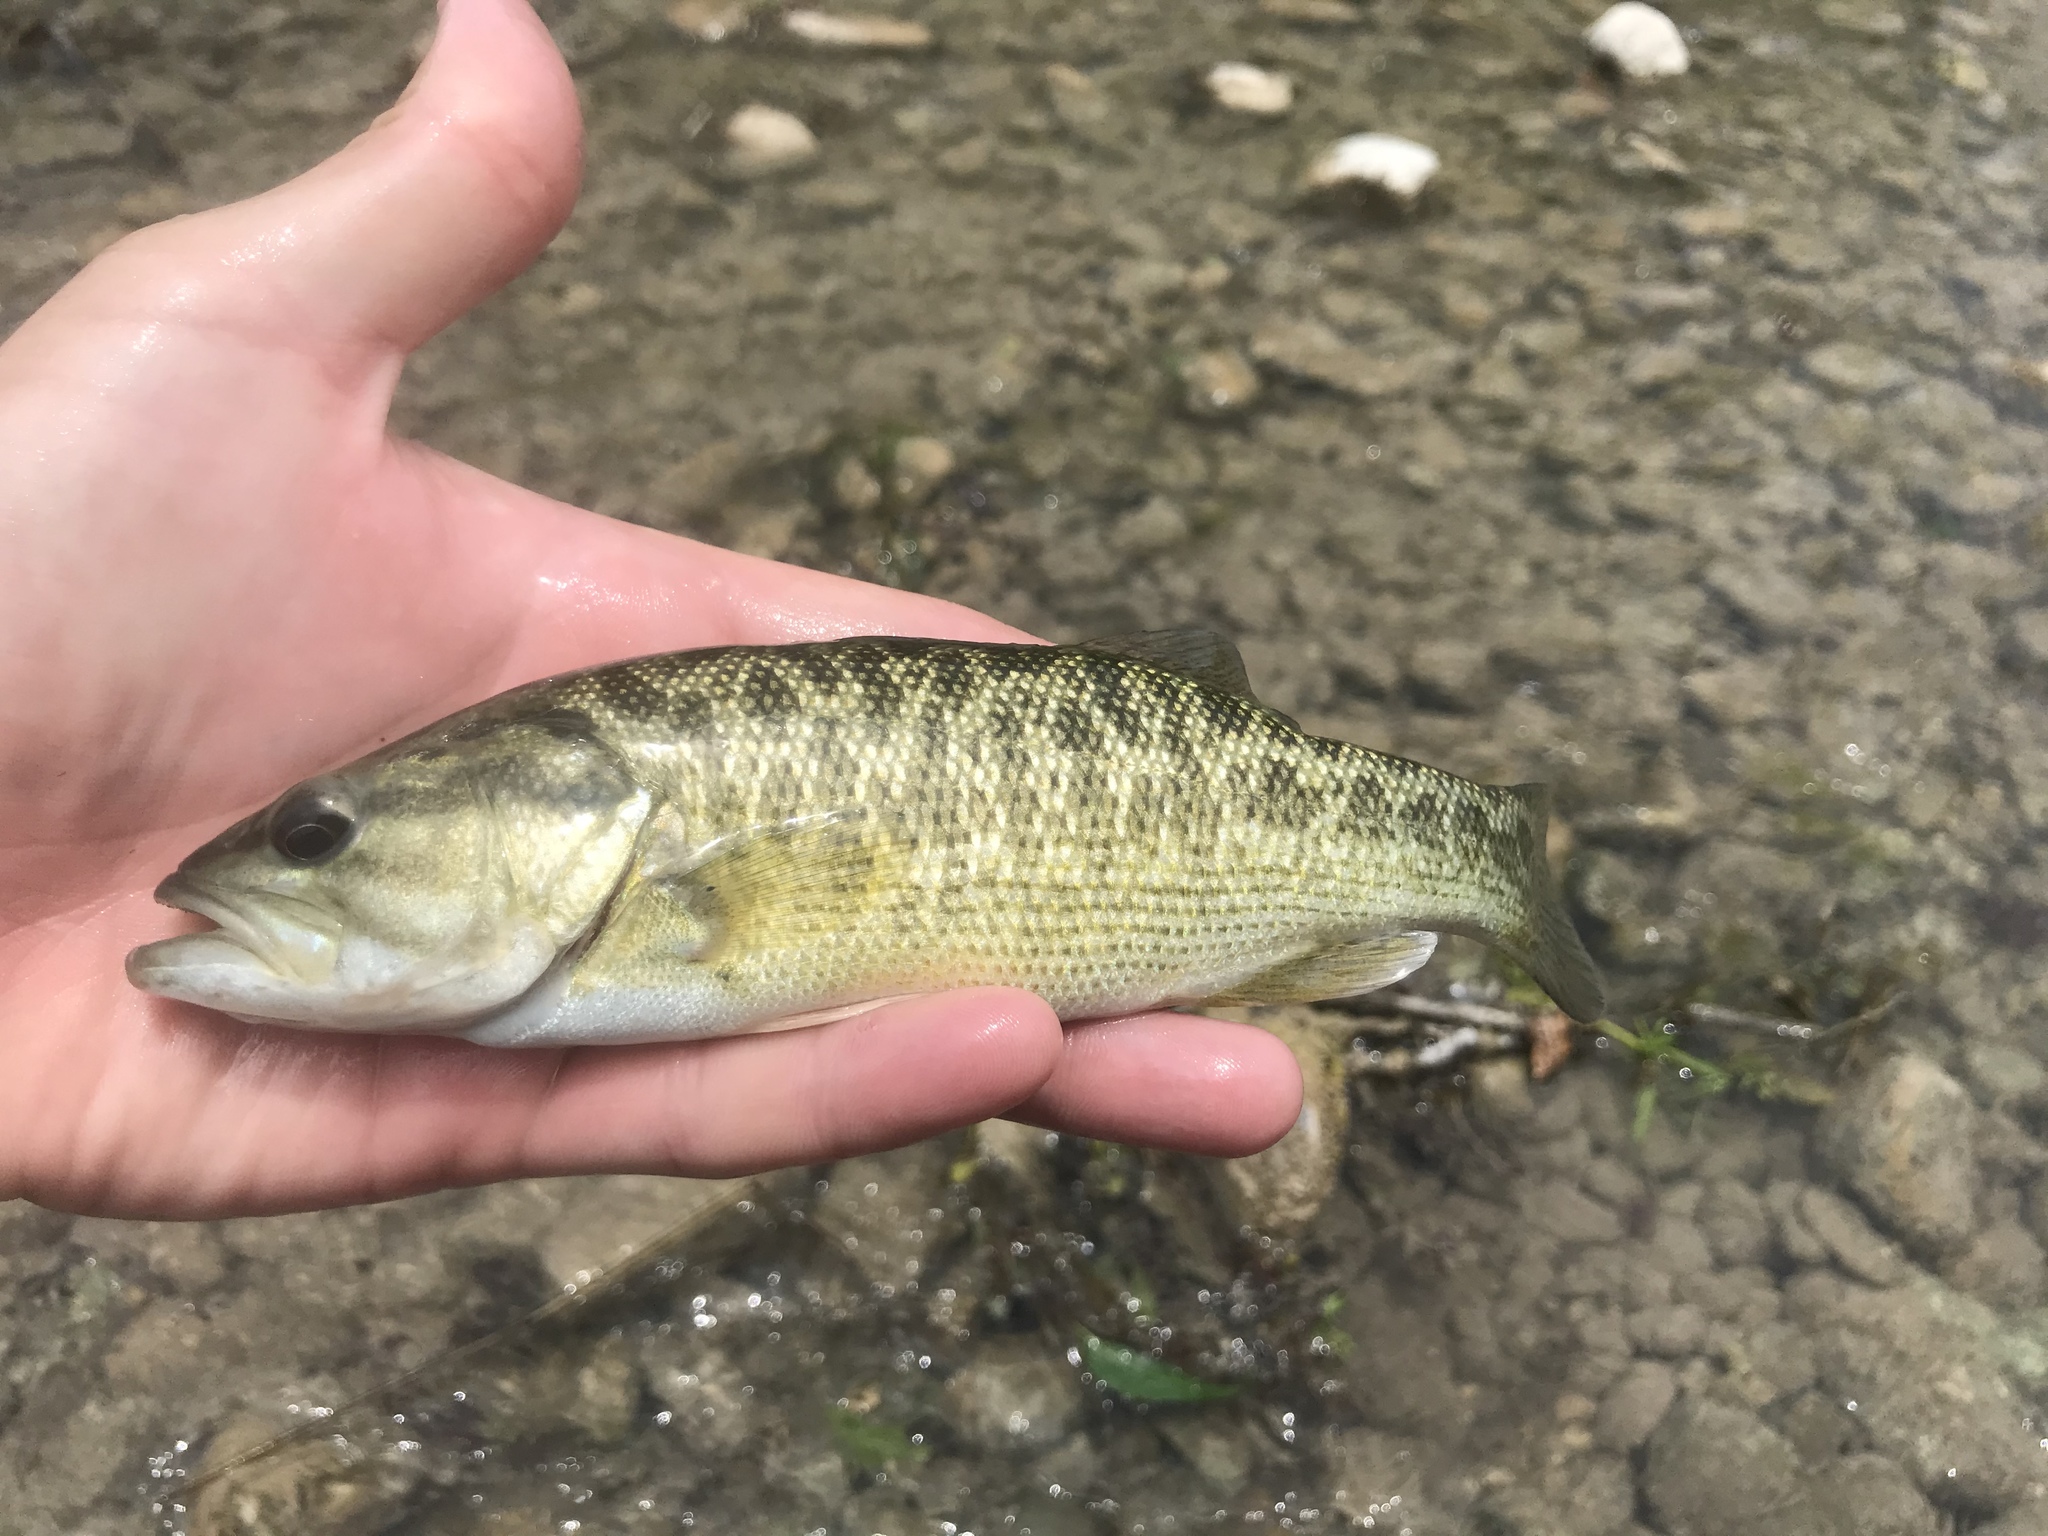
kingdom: Animalia
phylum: Chordata
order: Perciformes
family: Centrarchidae
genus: Micropterus
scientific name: Micropterus treculii
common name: Guadalupe bass
